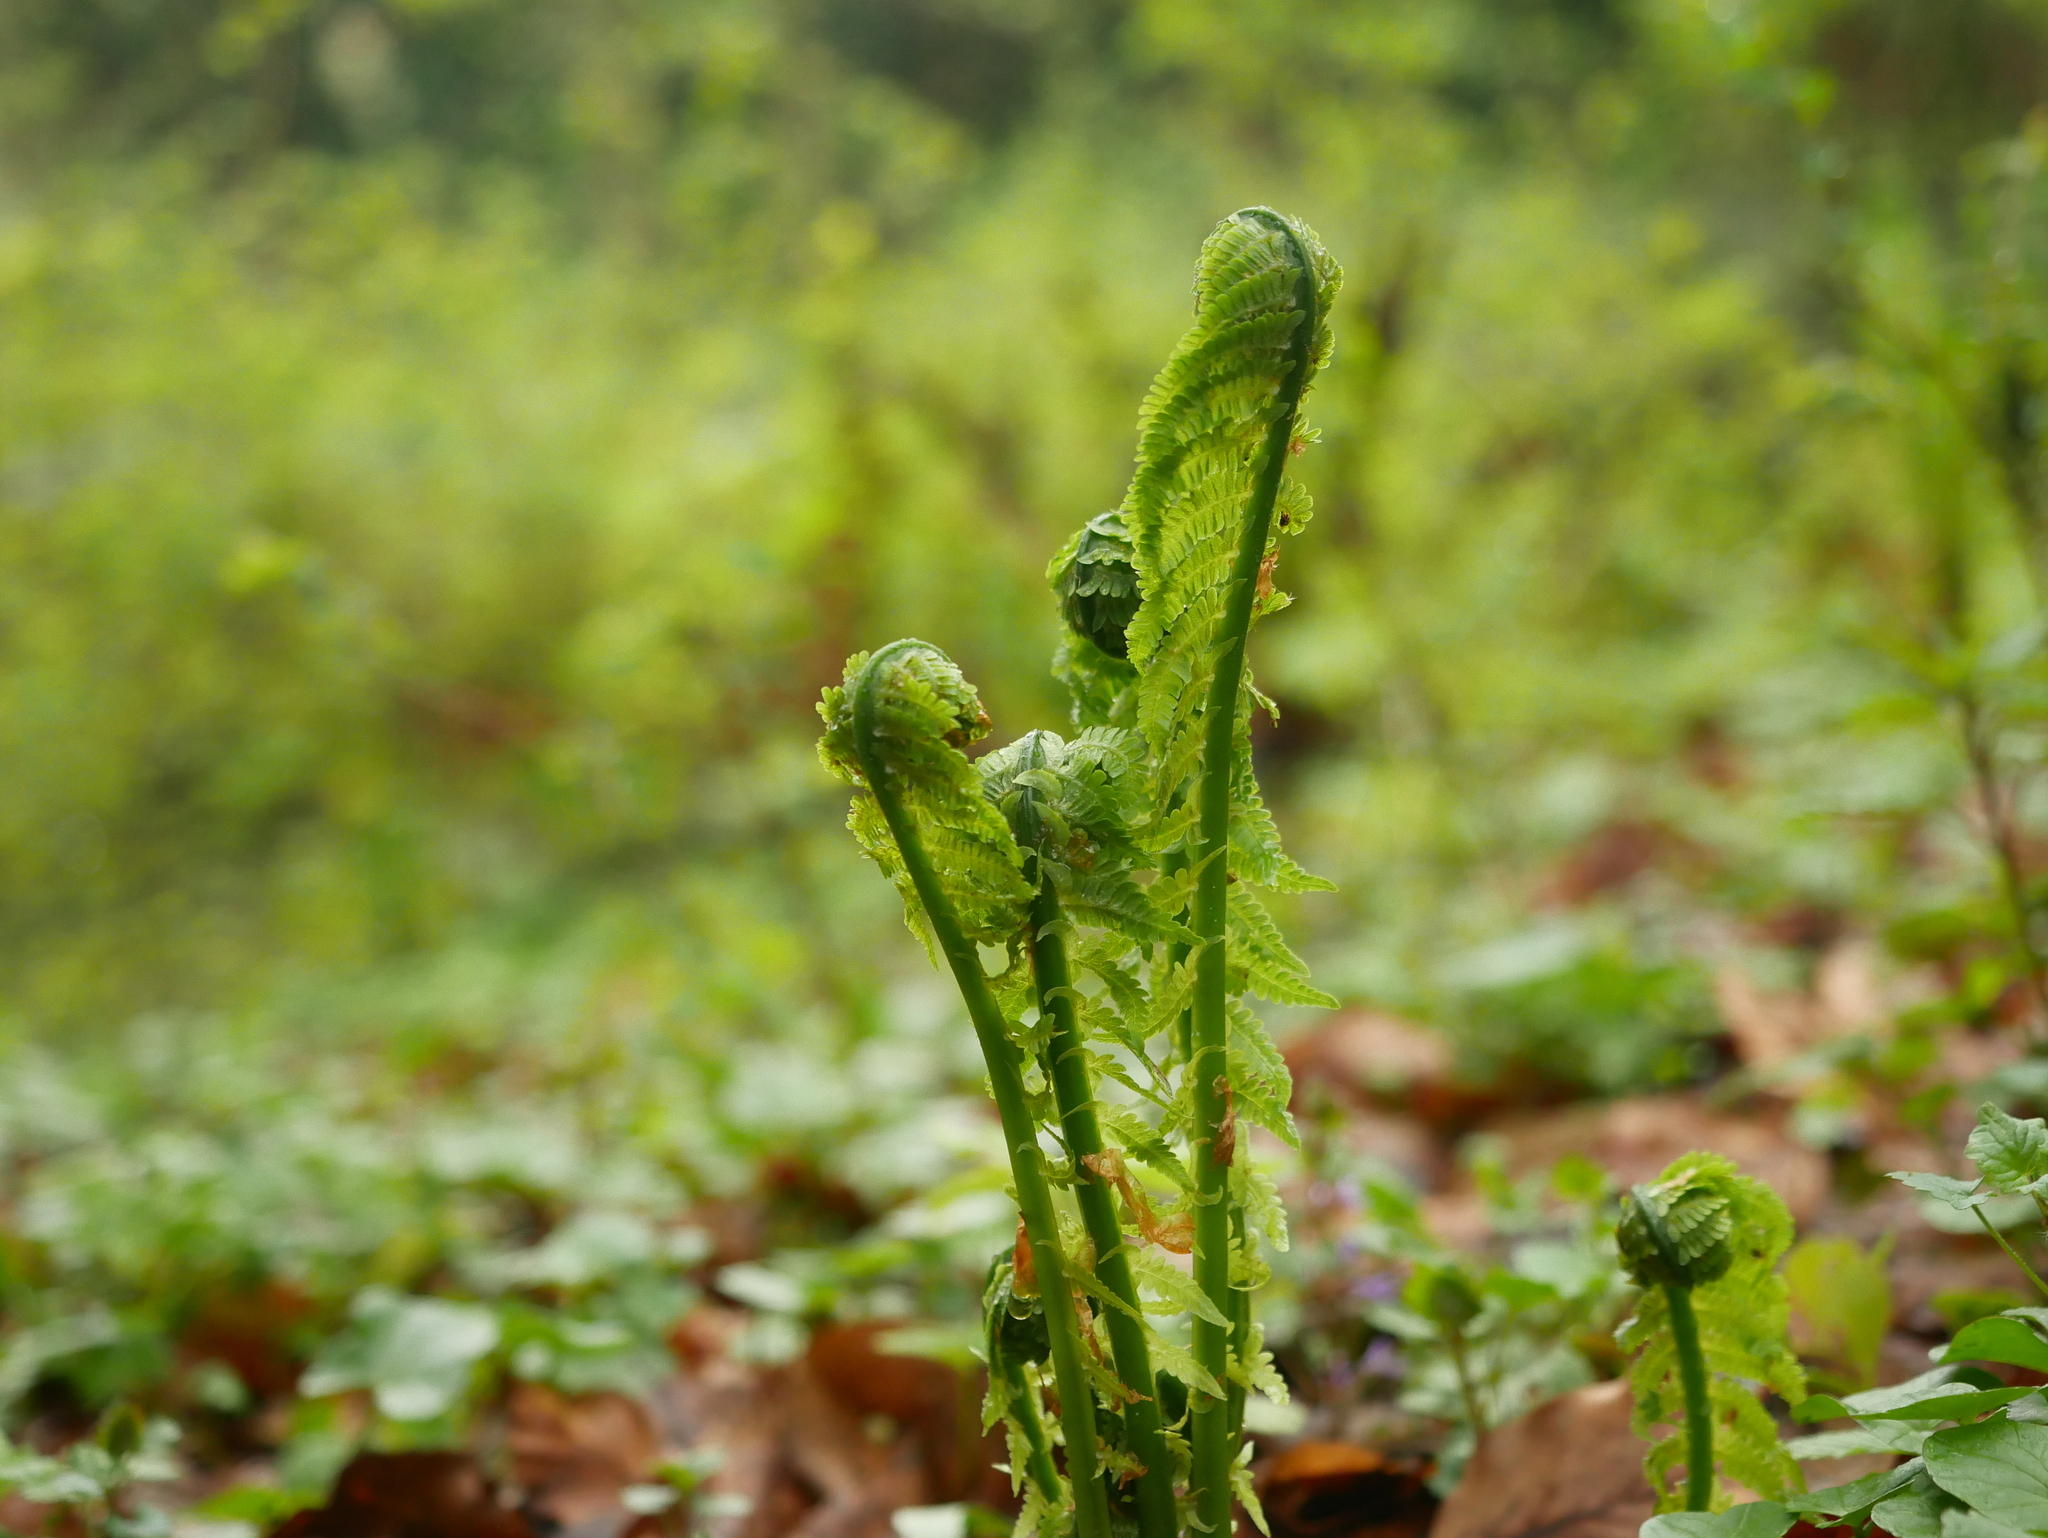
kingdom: Plantae
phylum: Tracheophyta
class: Polypodiopsida
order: Polypodiales
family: Onocleaceae
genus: Matteuccia
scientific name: Matteuccia struthiopteris
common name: Ostrich fern
